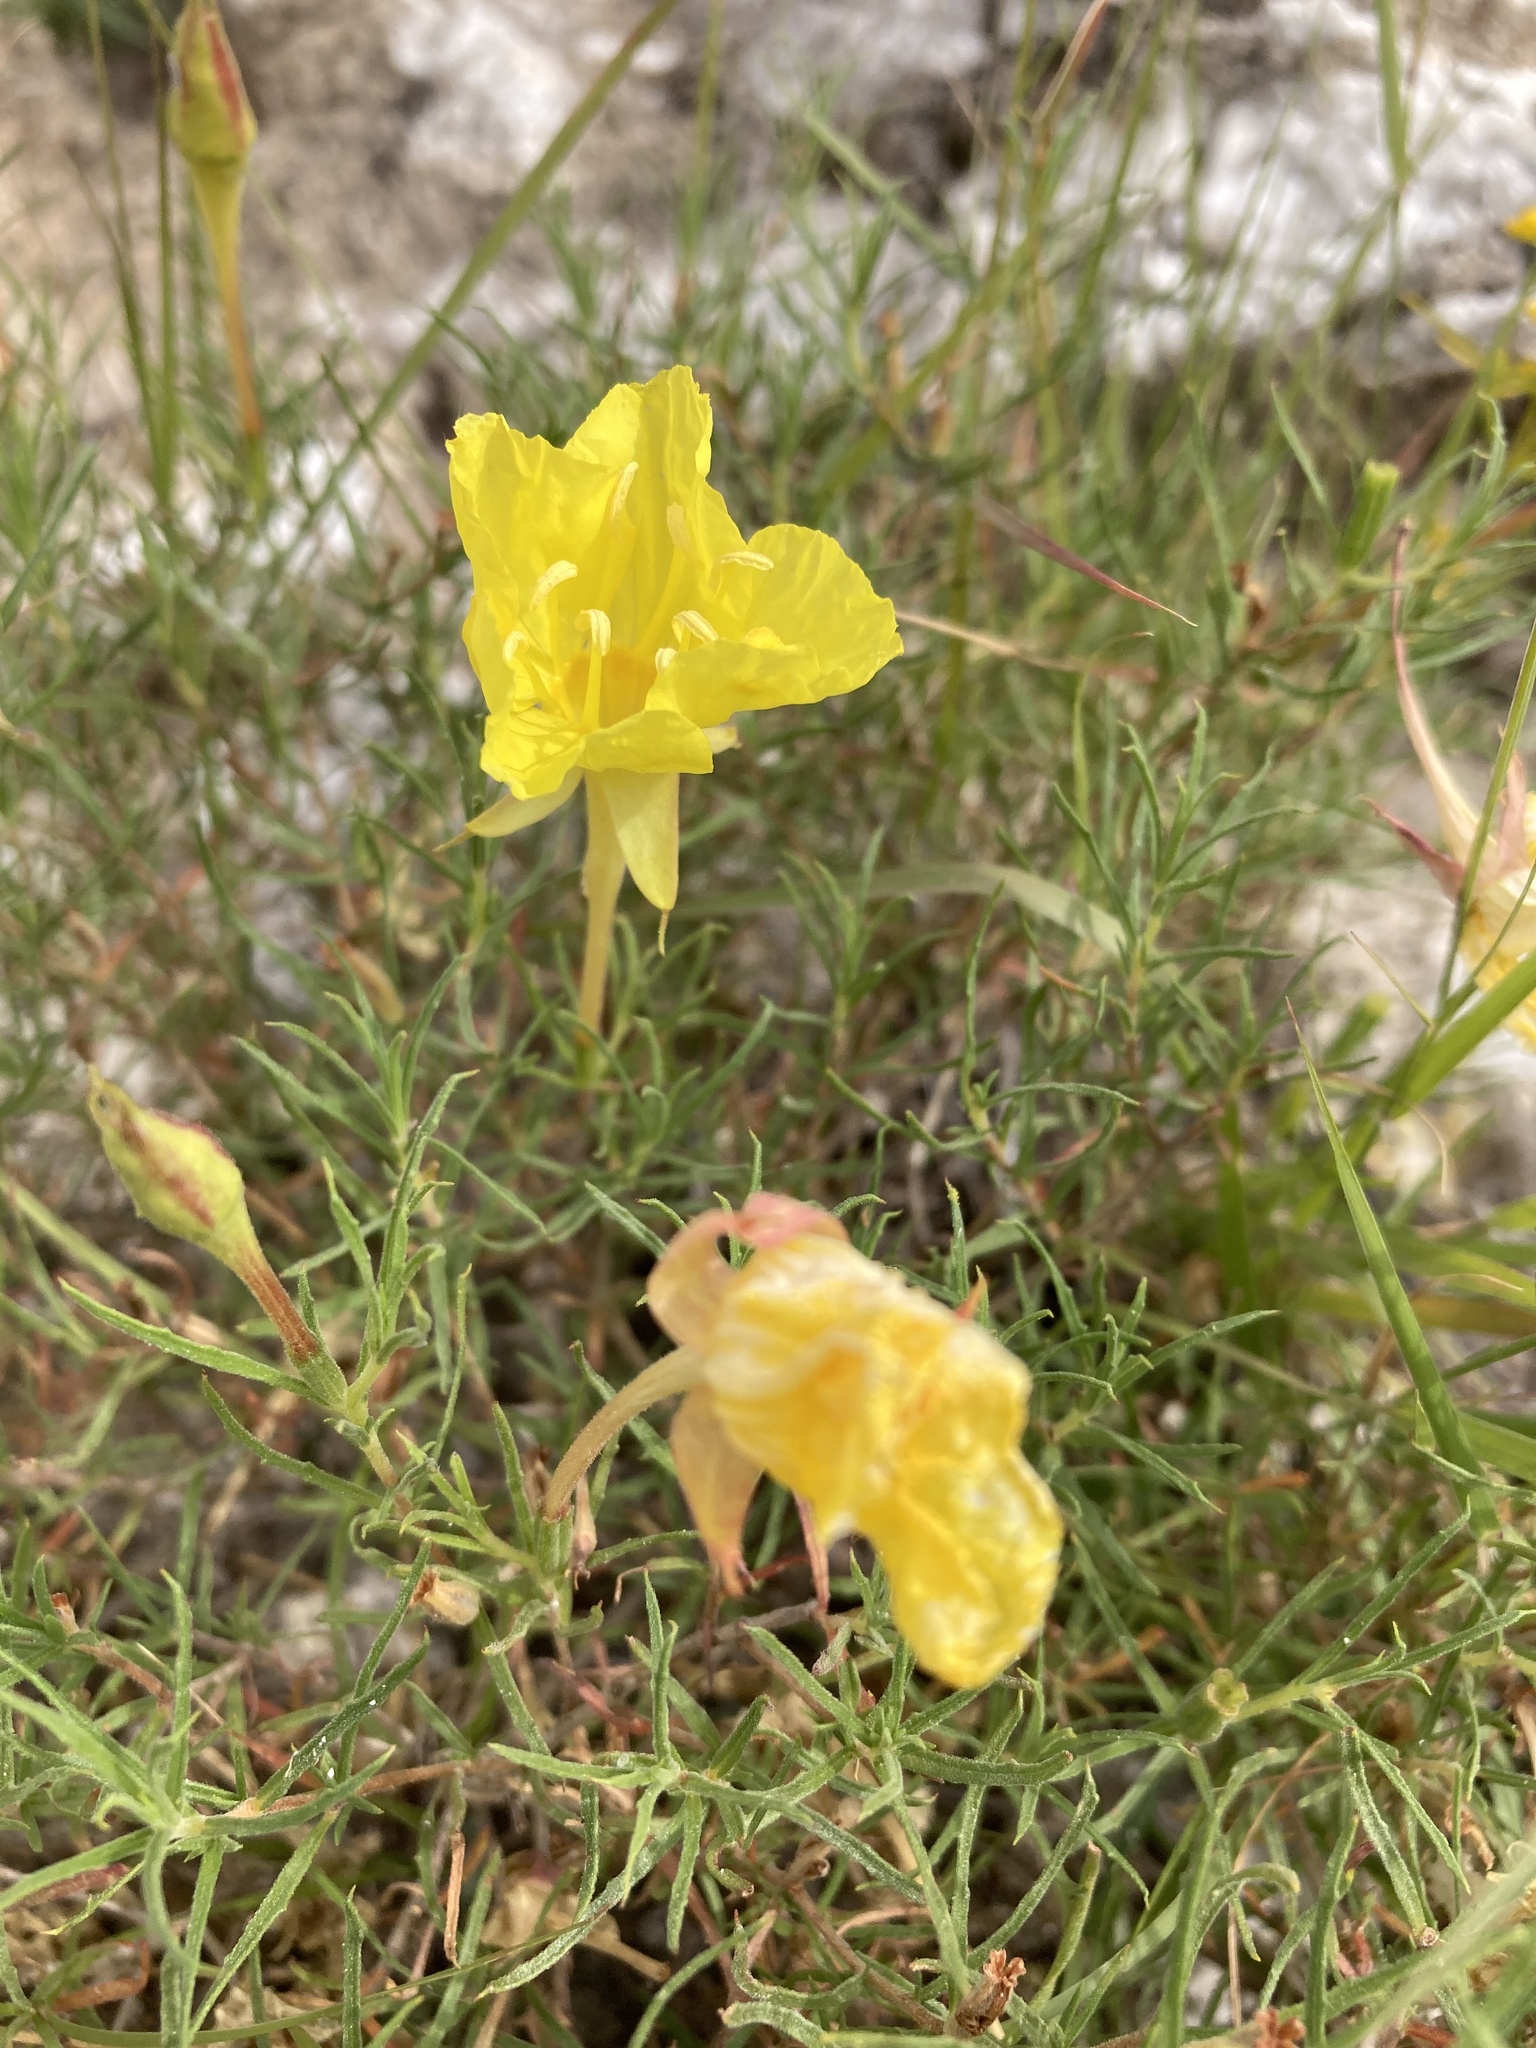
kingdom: Plantae
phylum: Tracheophyta
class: Magnoliopsida
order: Myrtales
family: Onagraceae
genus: Oenothera
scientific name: Oenothera hartwegii
